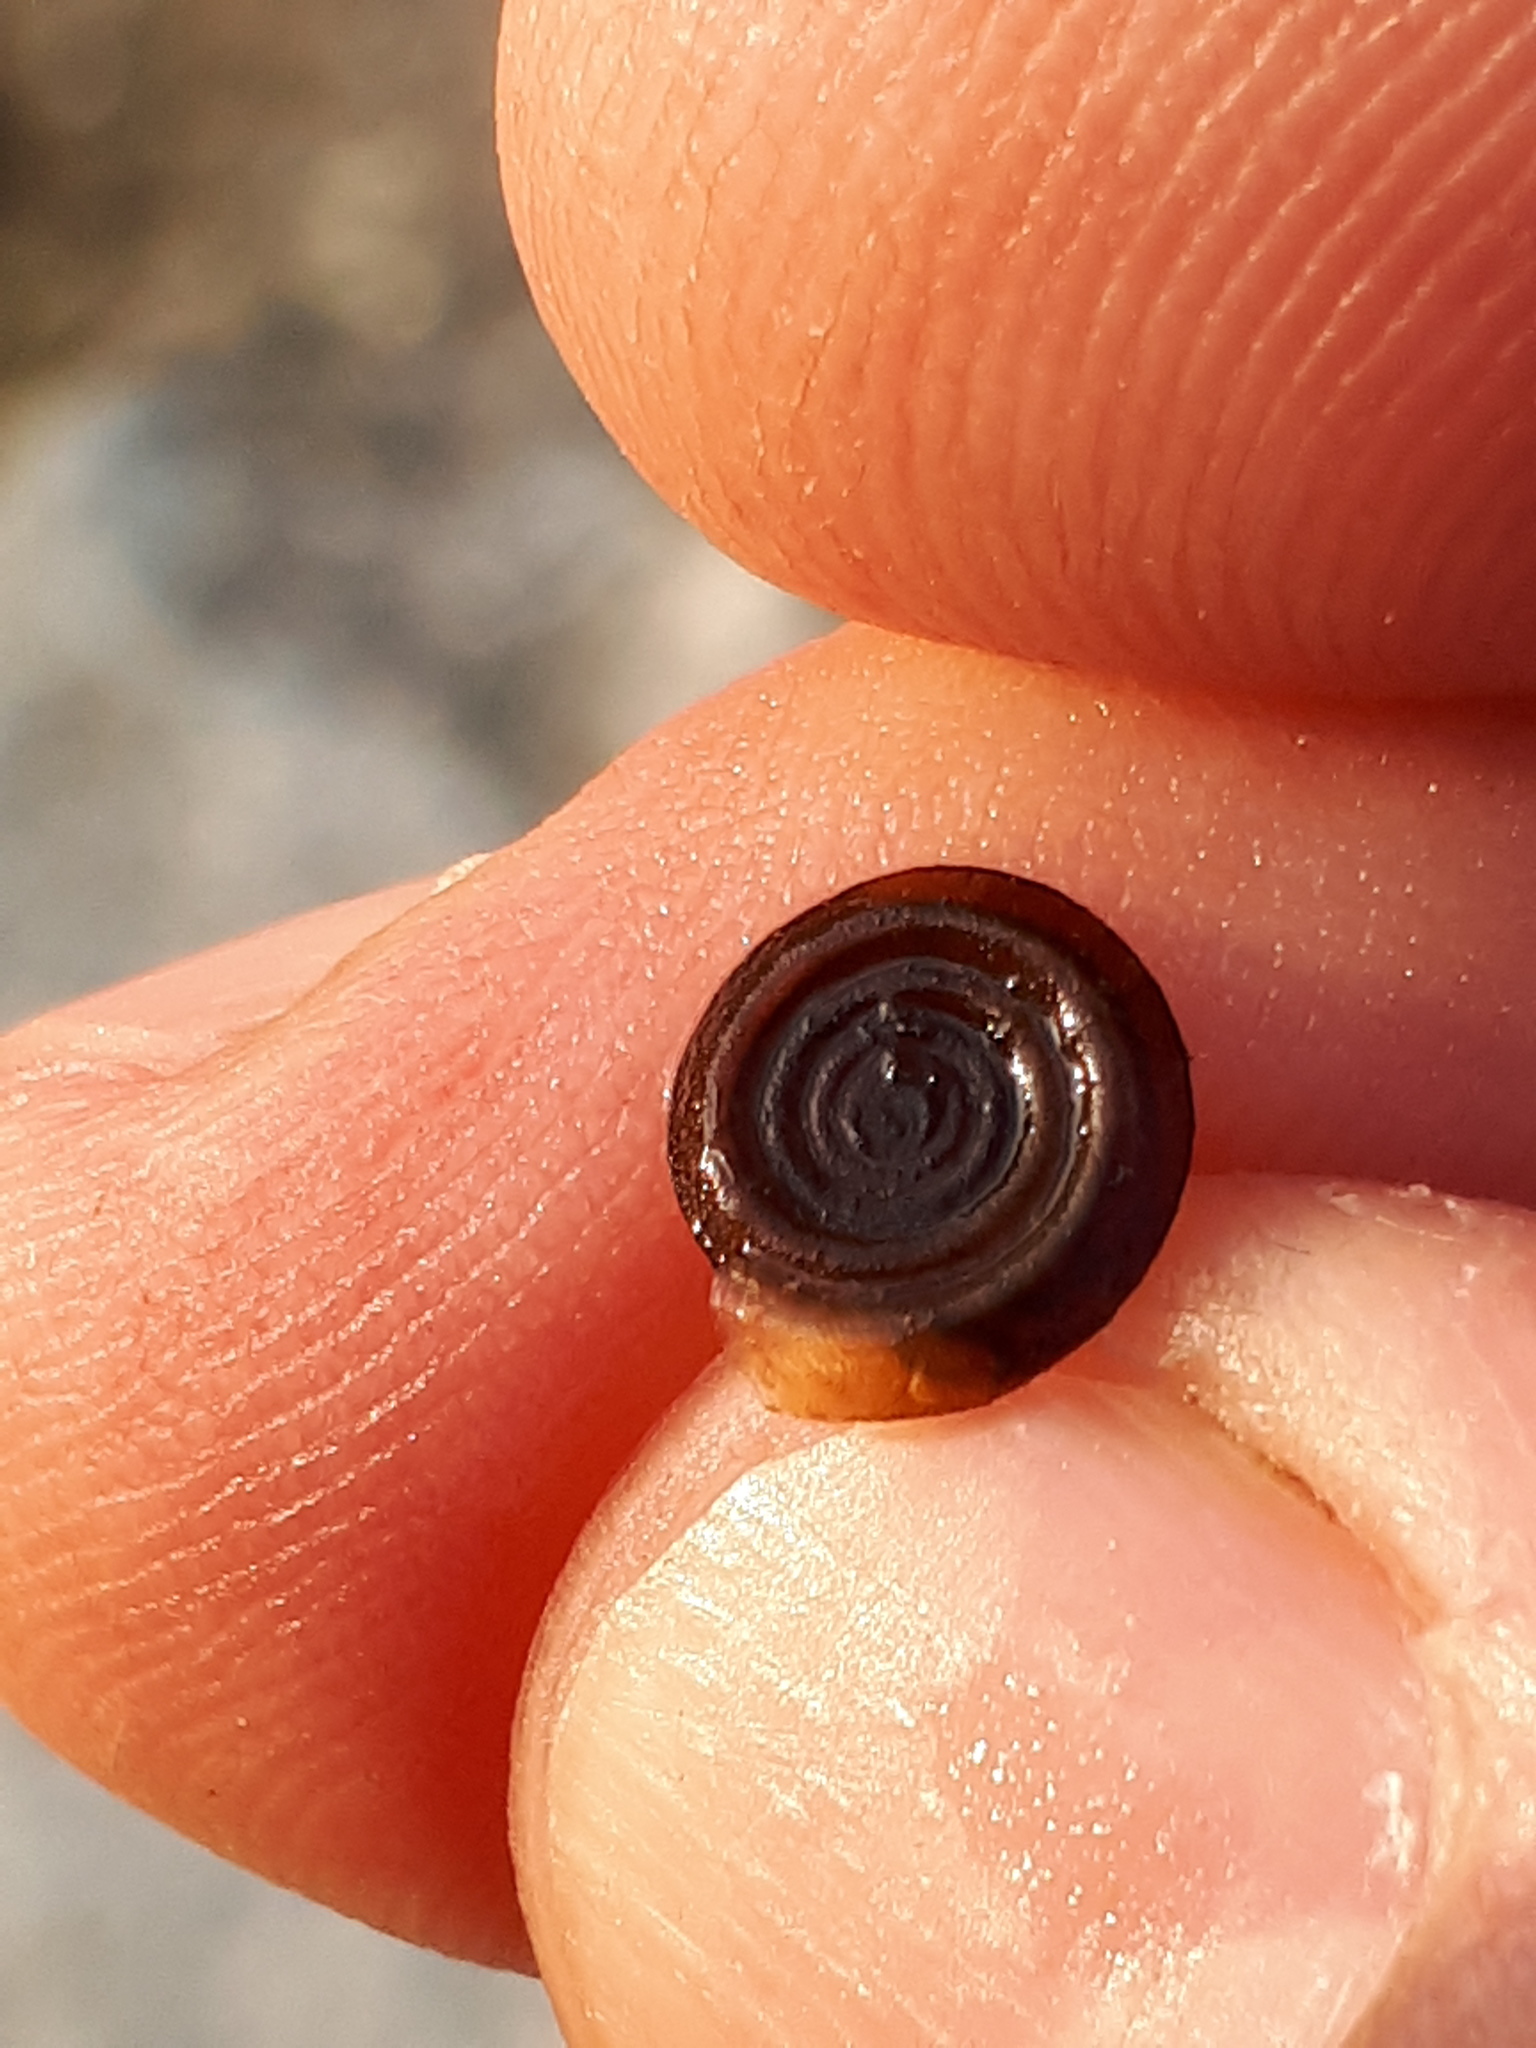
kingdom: Animalia
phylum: Mollusca
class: Gastropoda
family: Planorbidae
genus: Anisus
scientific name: Anisus vortex
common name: Whirlpool ram's horn snail
